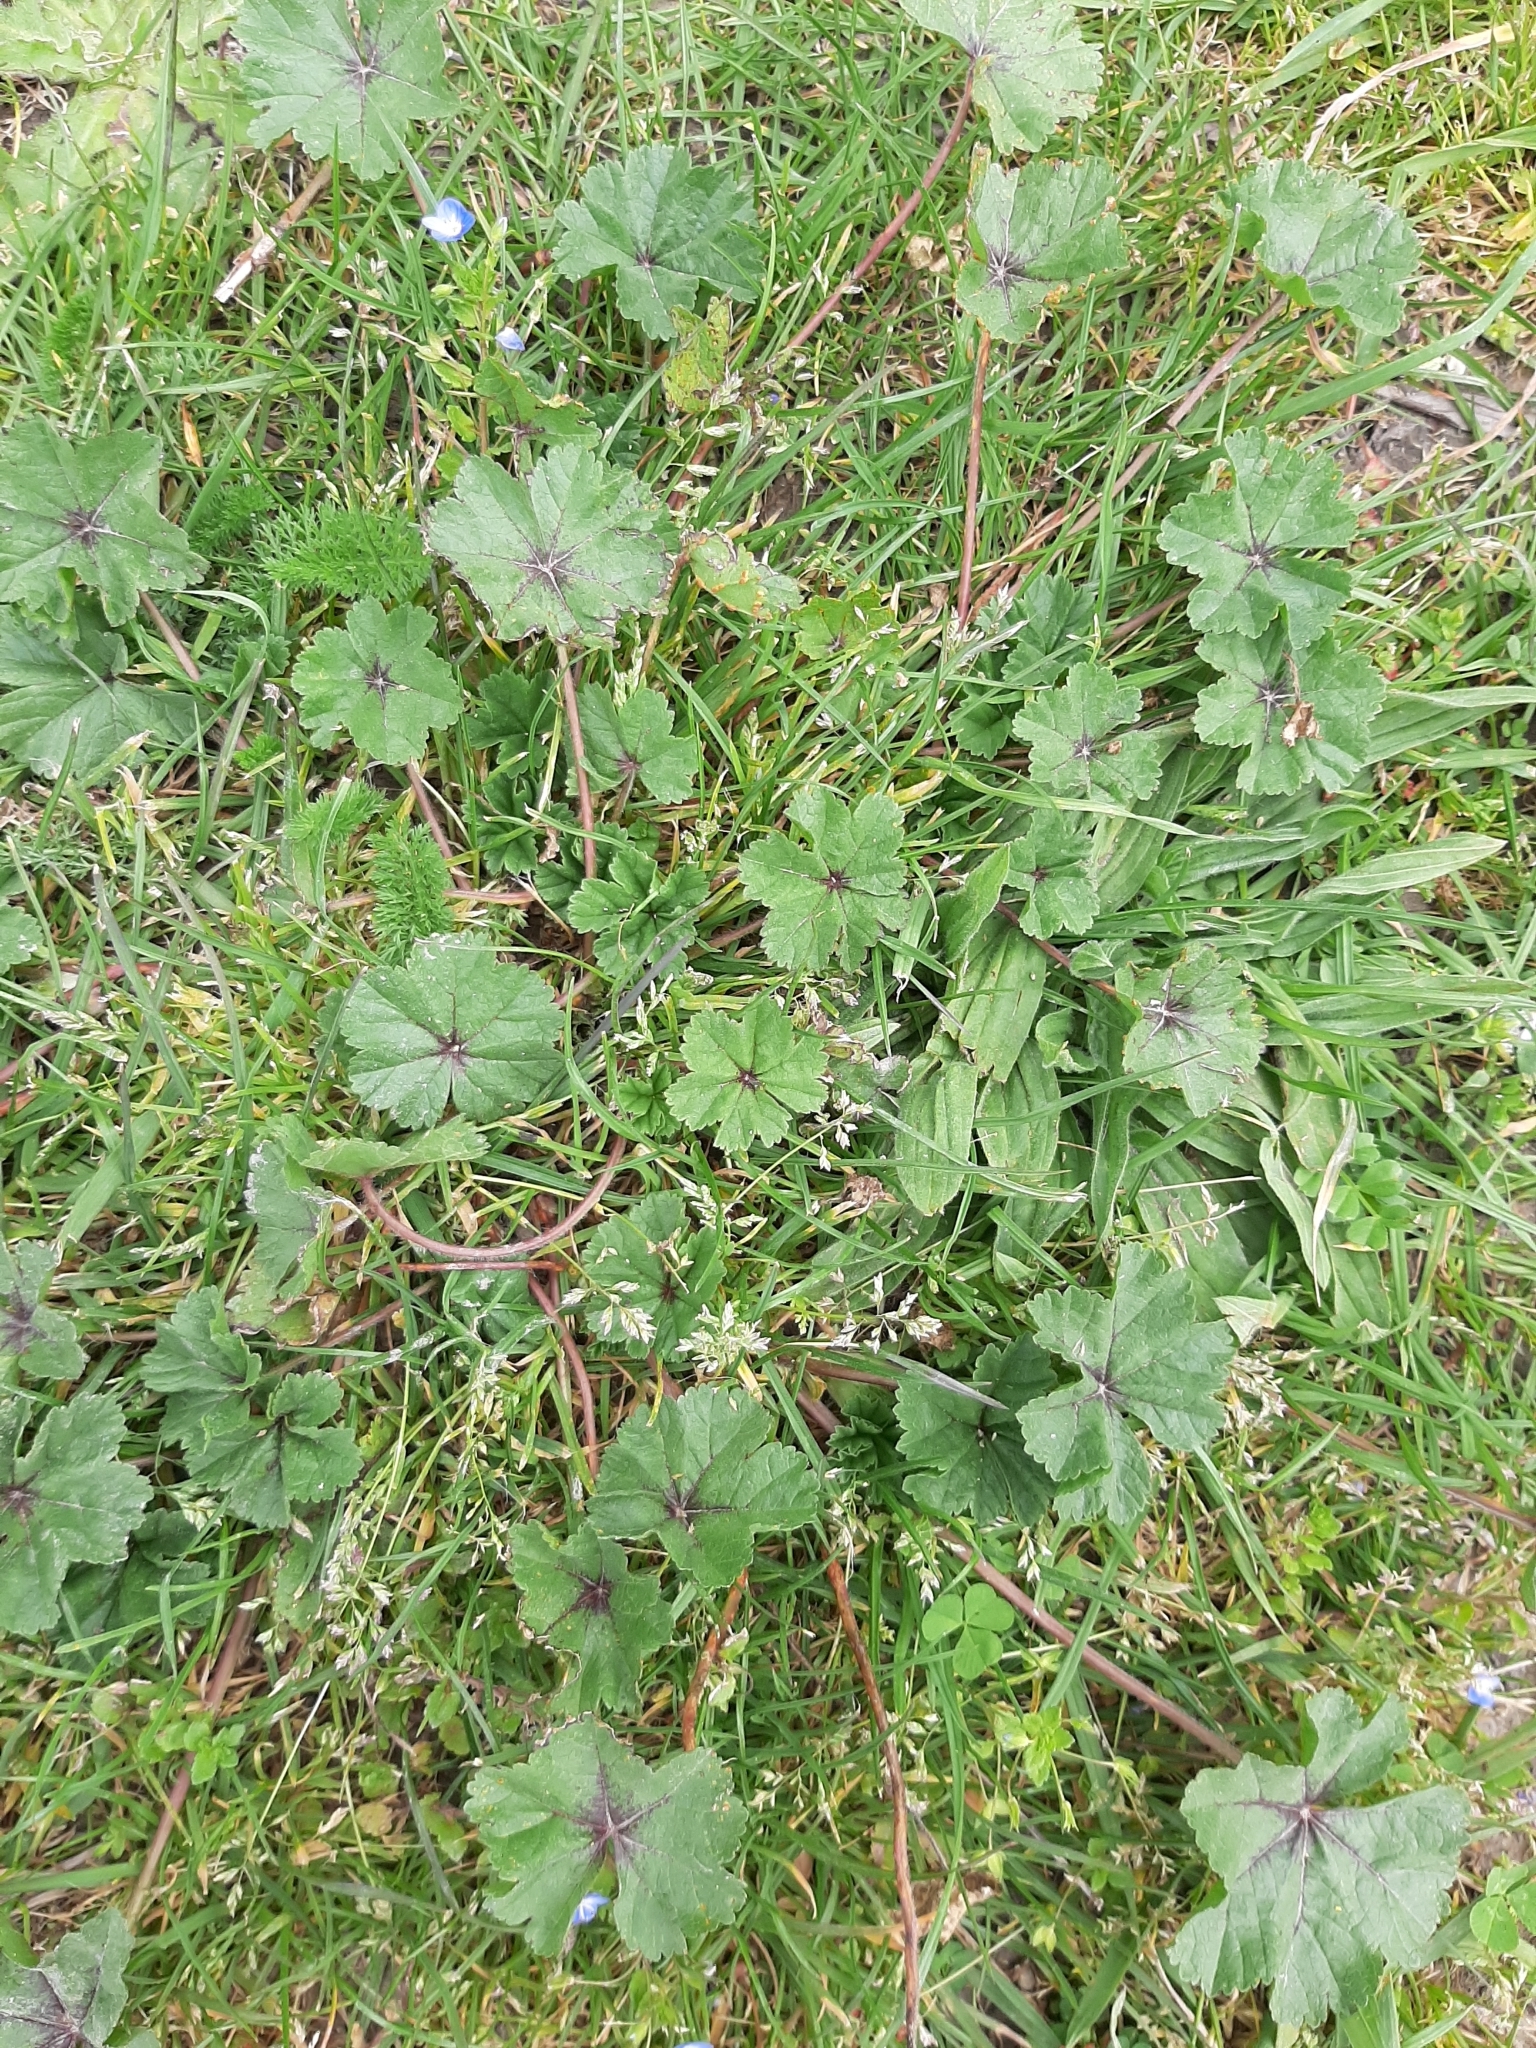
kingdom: Plantae
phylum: Tracheophyta
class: Magnoliopsida
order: Malvales
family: Malvaceae
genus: Malva
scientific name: Malva sylvestris
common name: Common mallow
